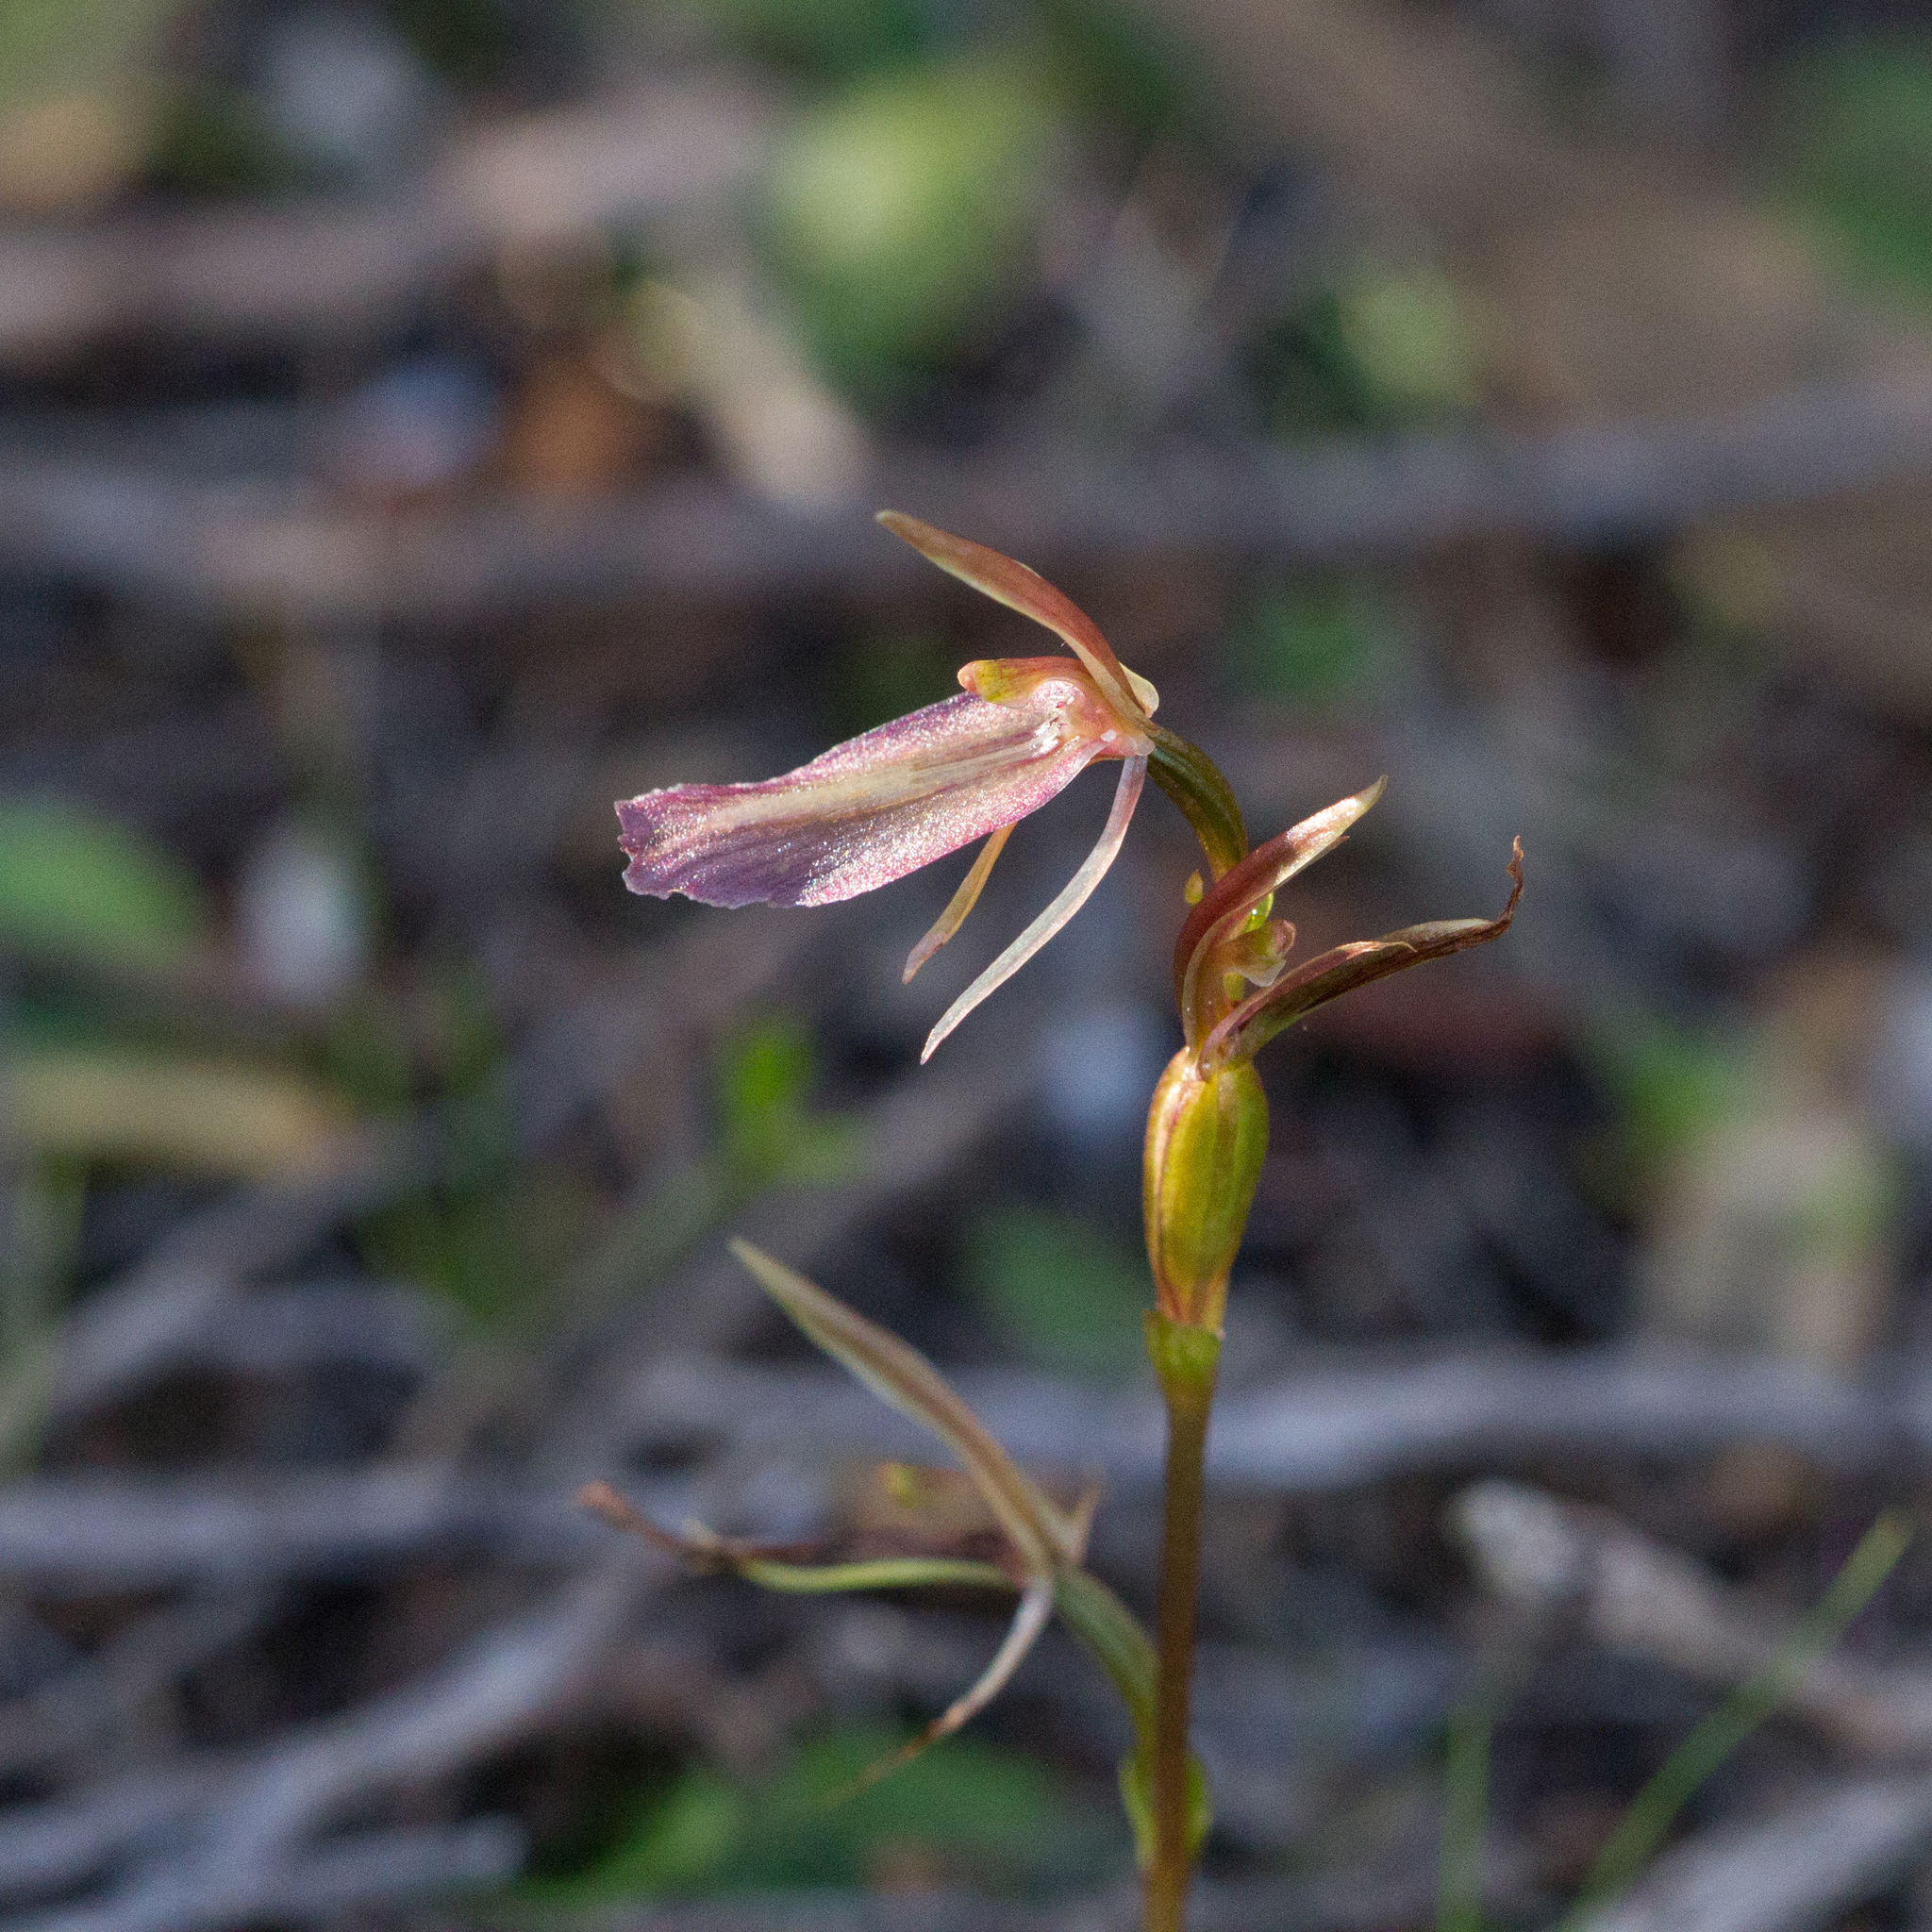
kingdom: Plantae
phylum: Tracheophyta
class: Liliopsida
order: Asparagales
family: Orchidaceae
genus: Cyrtostylis
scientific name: Cyrtostylis robusta
